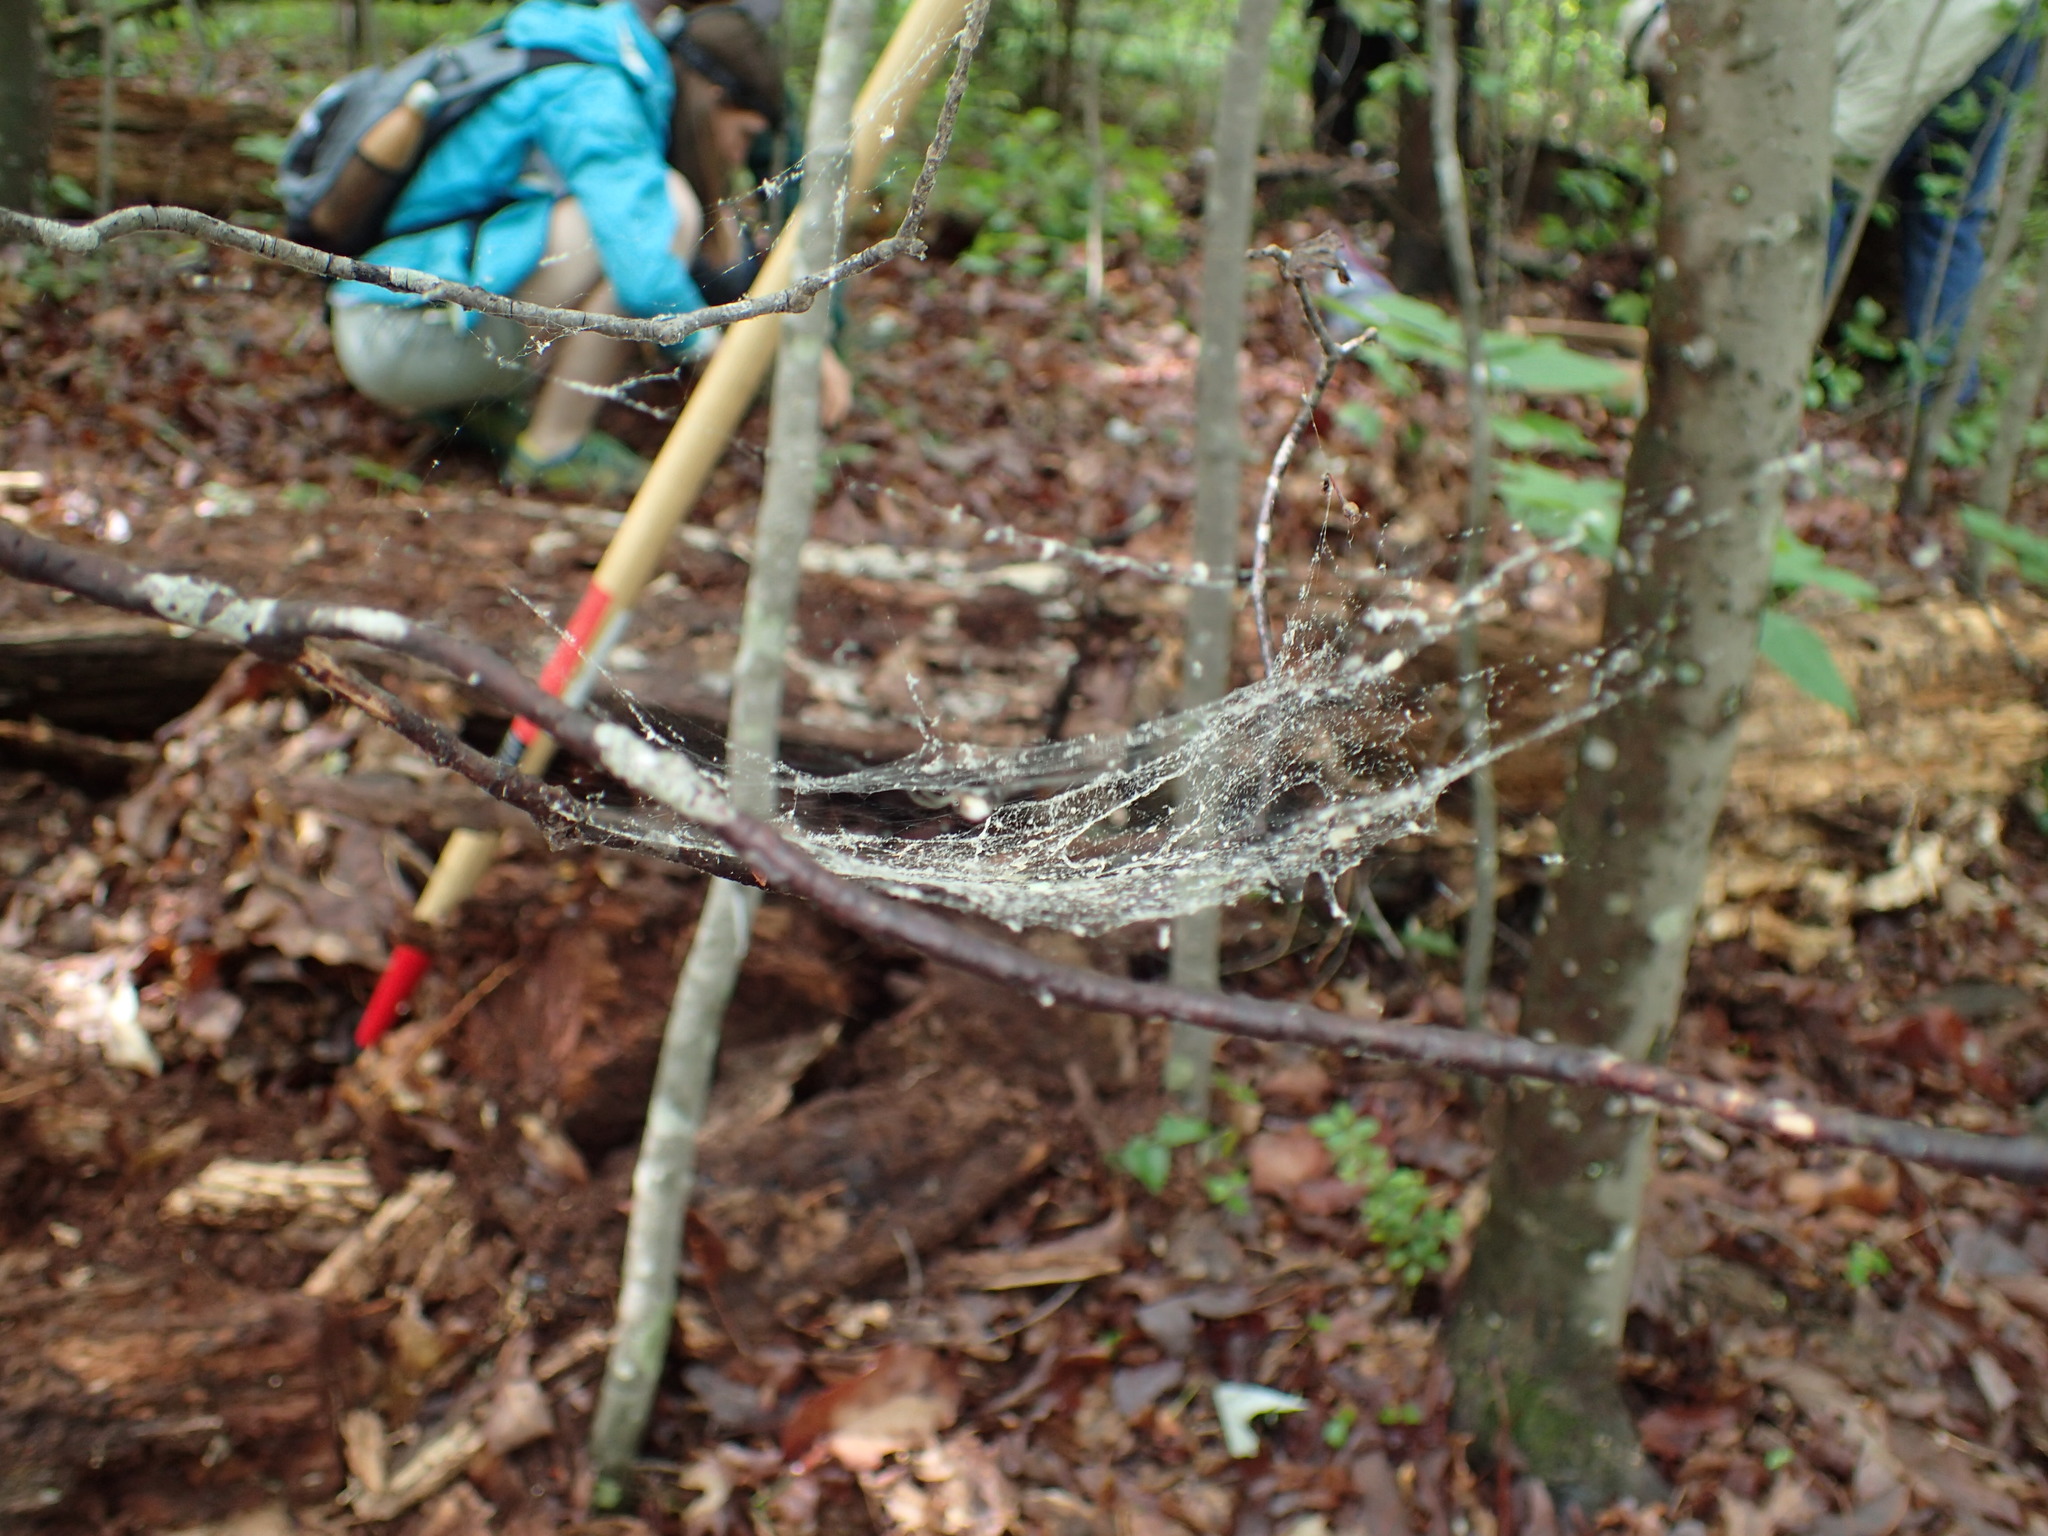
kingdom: Animalia
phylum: Arthropoda
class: Arachnida
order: Araneae
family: Linyphiidae
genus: Frontinella
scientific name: Frontinella pyramitela
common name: Bowl-and-doily spider
